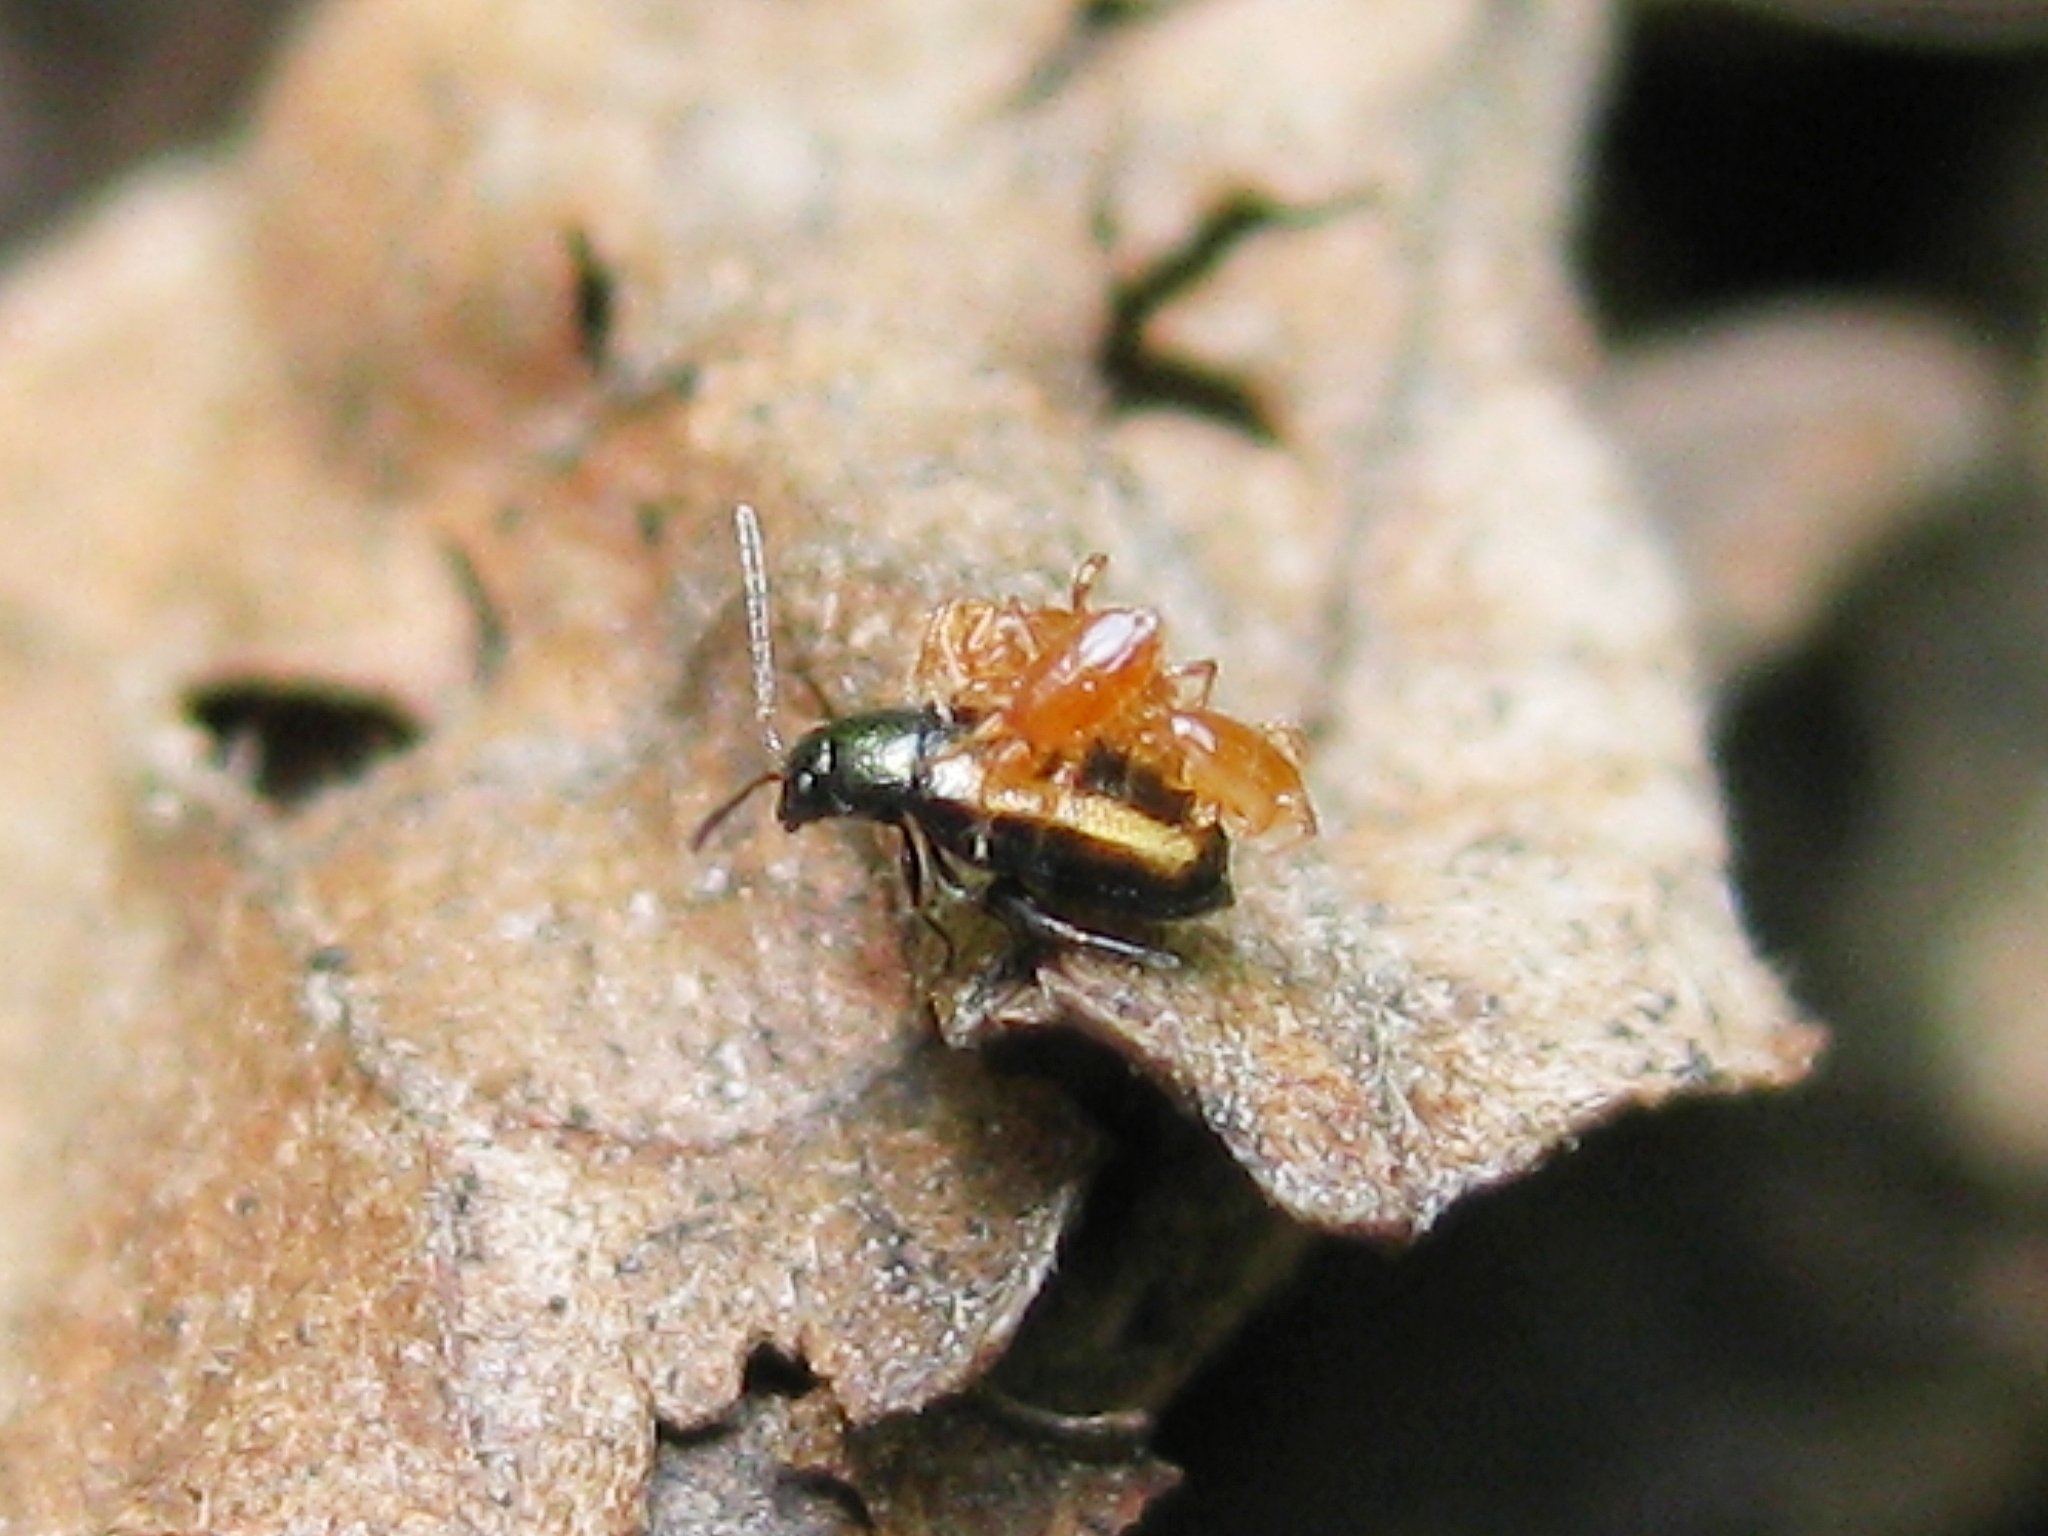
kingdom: Animalia
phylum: Arthropoda
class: Insecta
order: Coleoptera
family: Chrysomelidae
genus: Phyllotreta
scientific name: Phyllotreta
